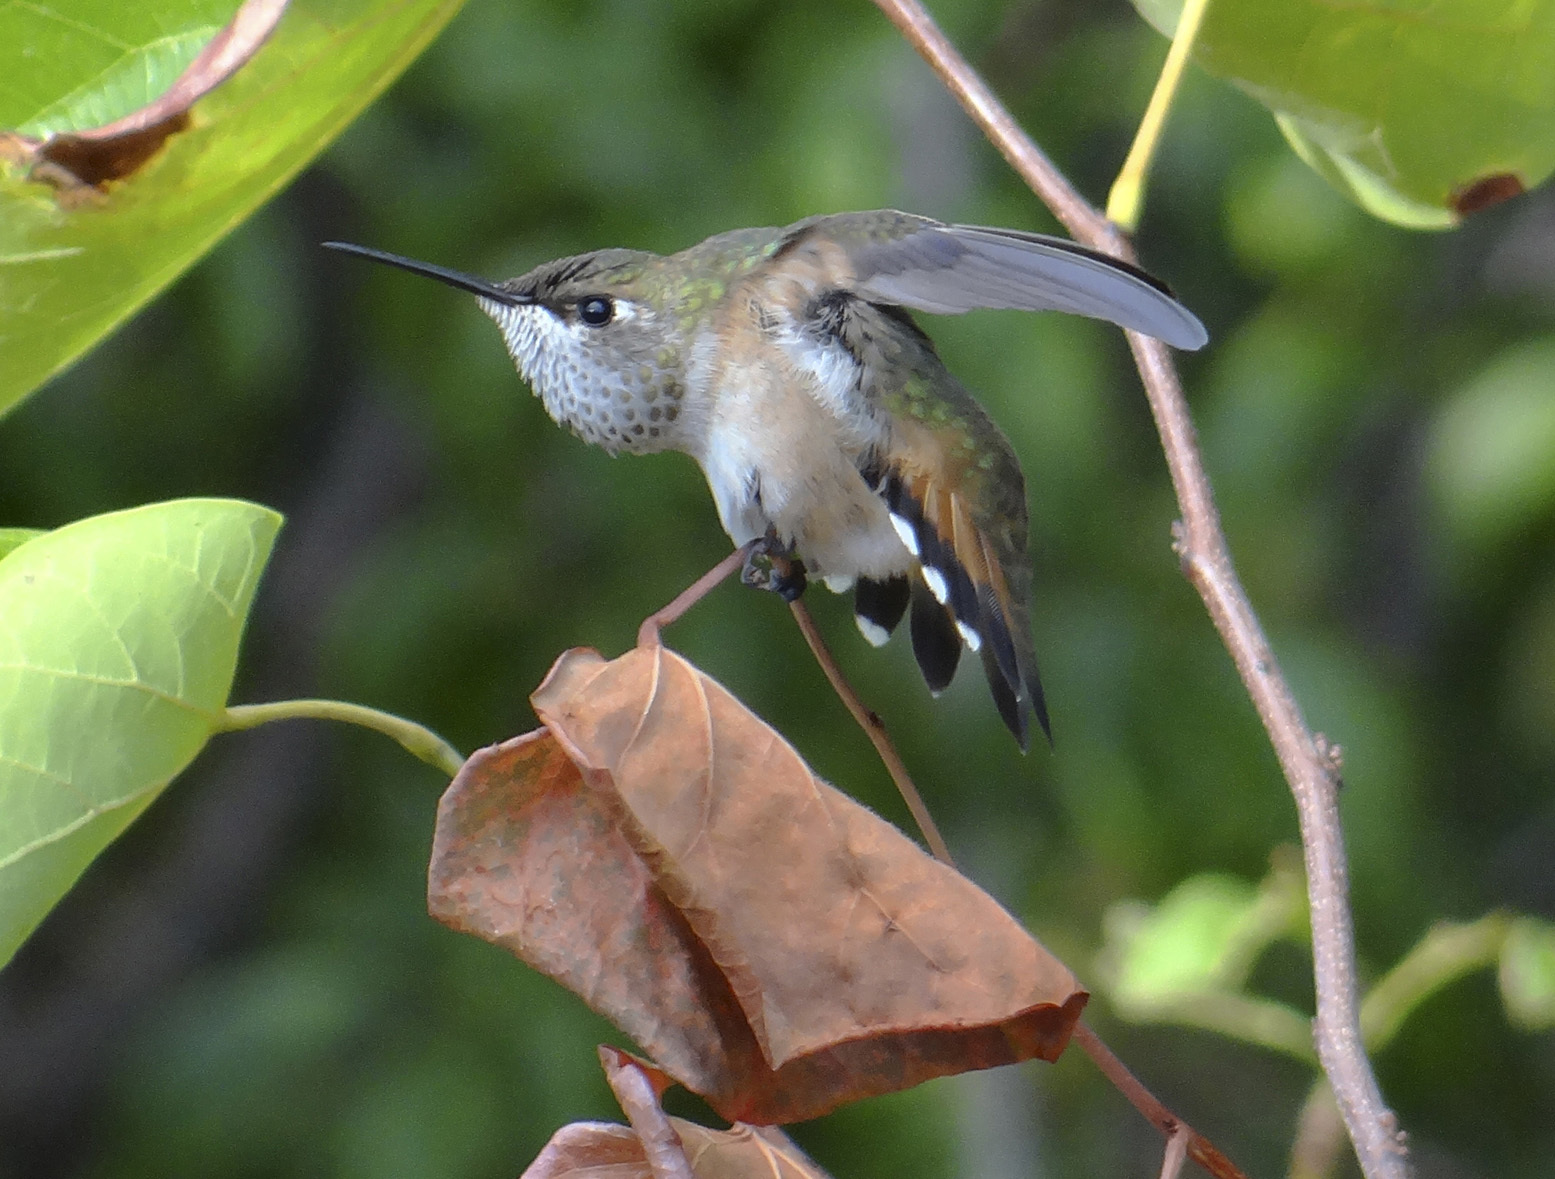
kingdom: Animalia
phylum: Chordata
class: Aves
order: Apodiformes
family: Trochilidae
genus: Selasphorus
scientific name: Selasphorus rufus
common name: Rufous hummingbird
